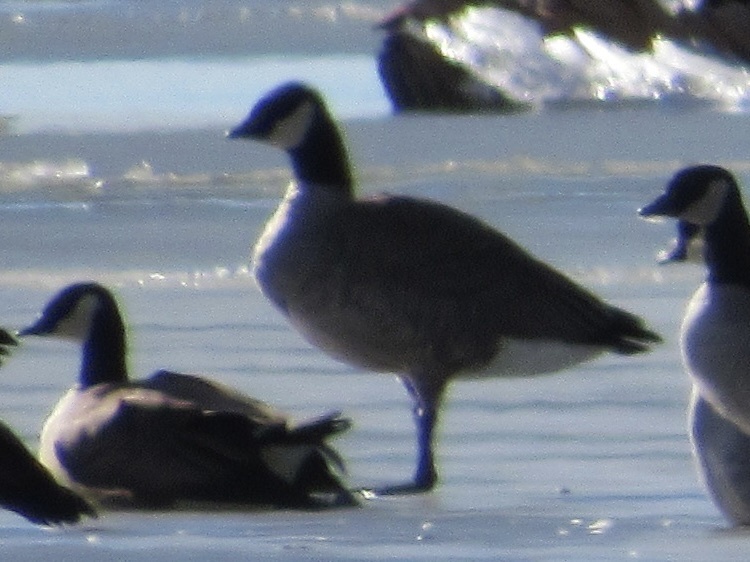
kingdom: Animalia
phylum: Chordata
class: Aves
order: Anseriformes
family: Anatidae
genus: Branta
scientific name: Branta hutchinsii
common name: Cackling goose
